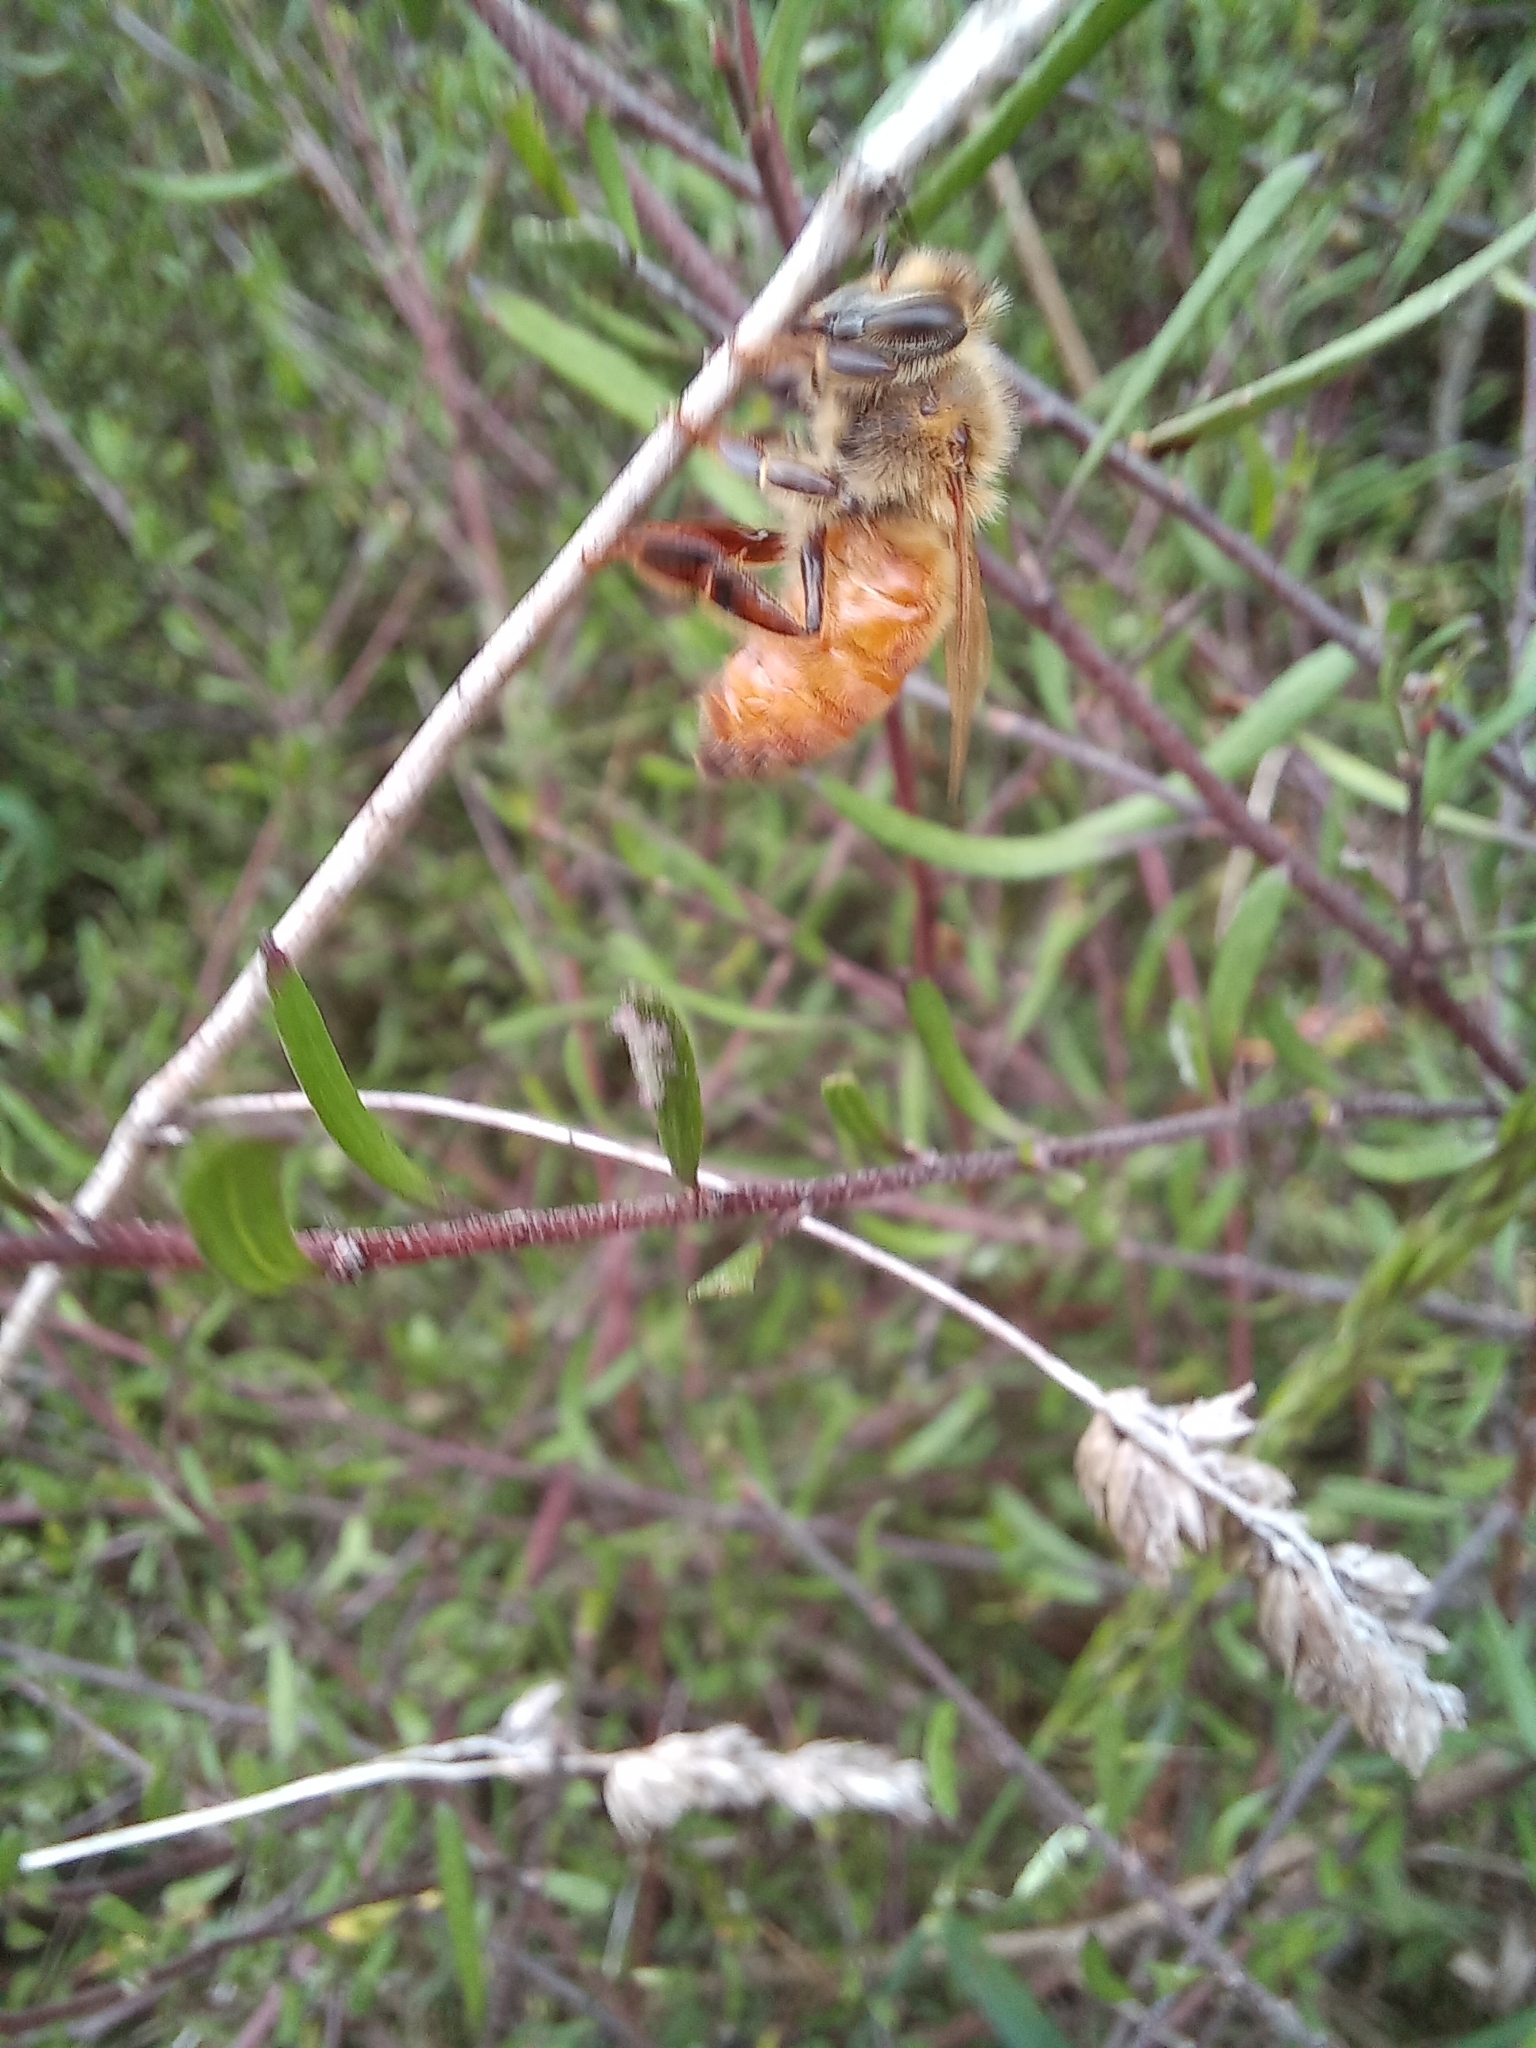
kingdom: Animalia
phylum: Arthropoda
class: Insecta
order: Hymenoptera
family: Apidae
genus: Apis
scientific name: Apis mellifera
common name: Honey bee
